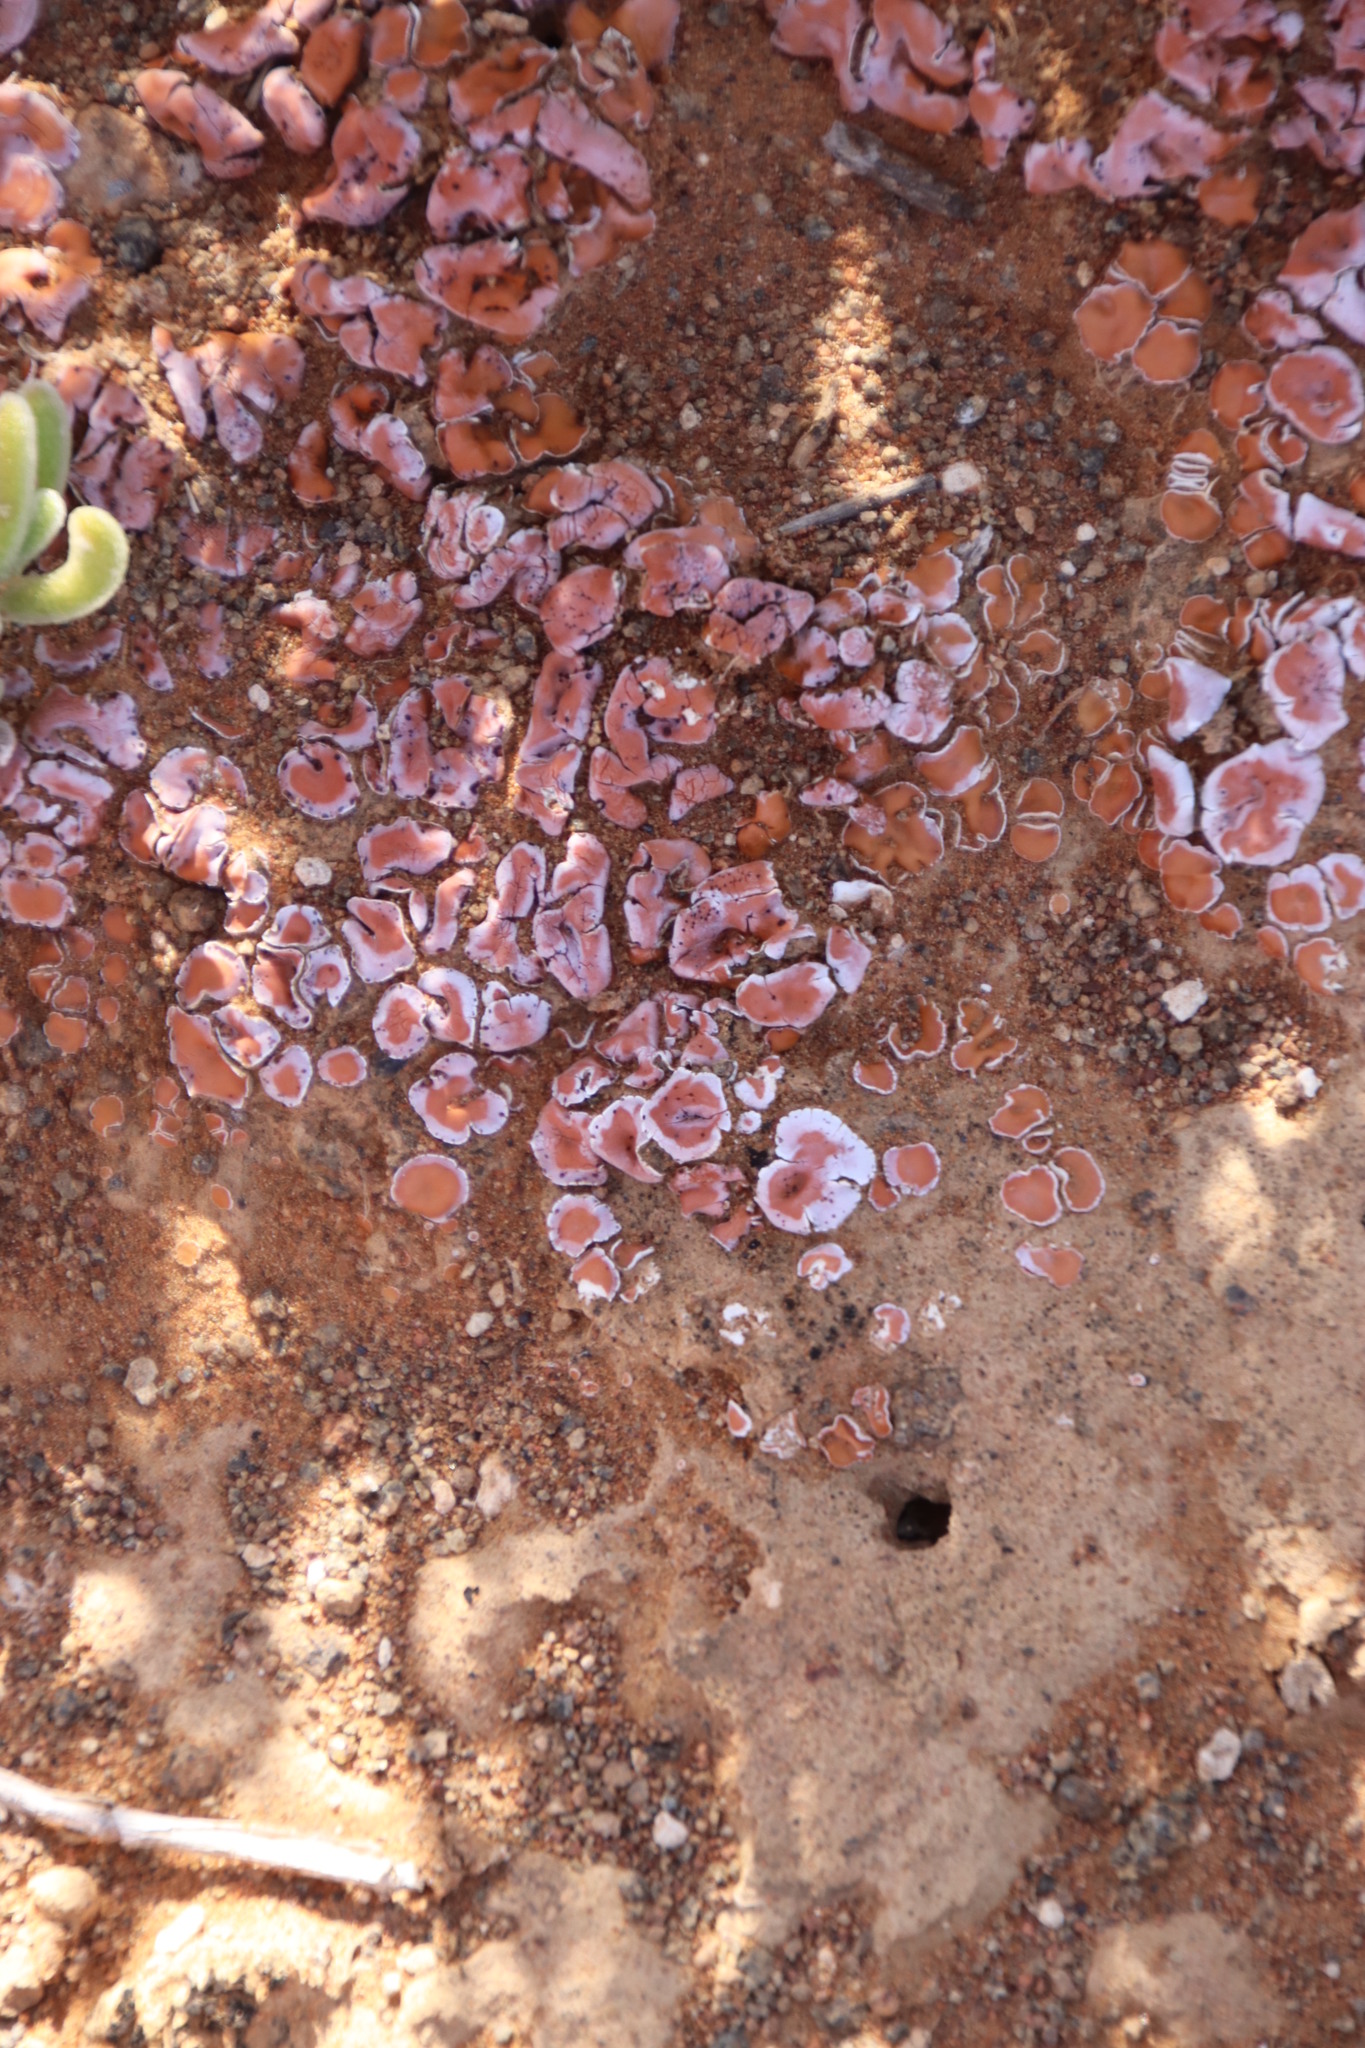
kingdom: Fungi
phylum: Ascomycota
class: Lecanoromycetes
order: Lecanorales
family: Psoraceae
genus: Psora
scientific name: Psora crenata
